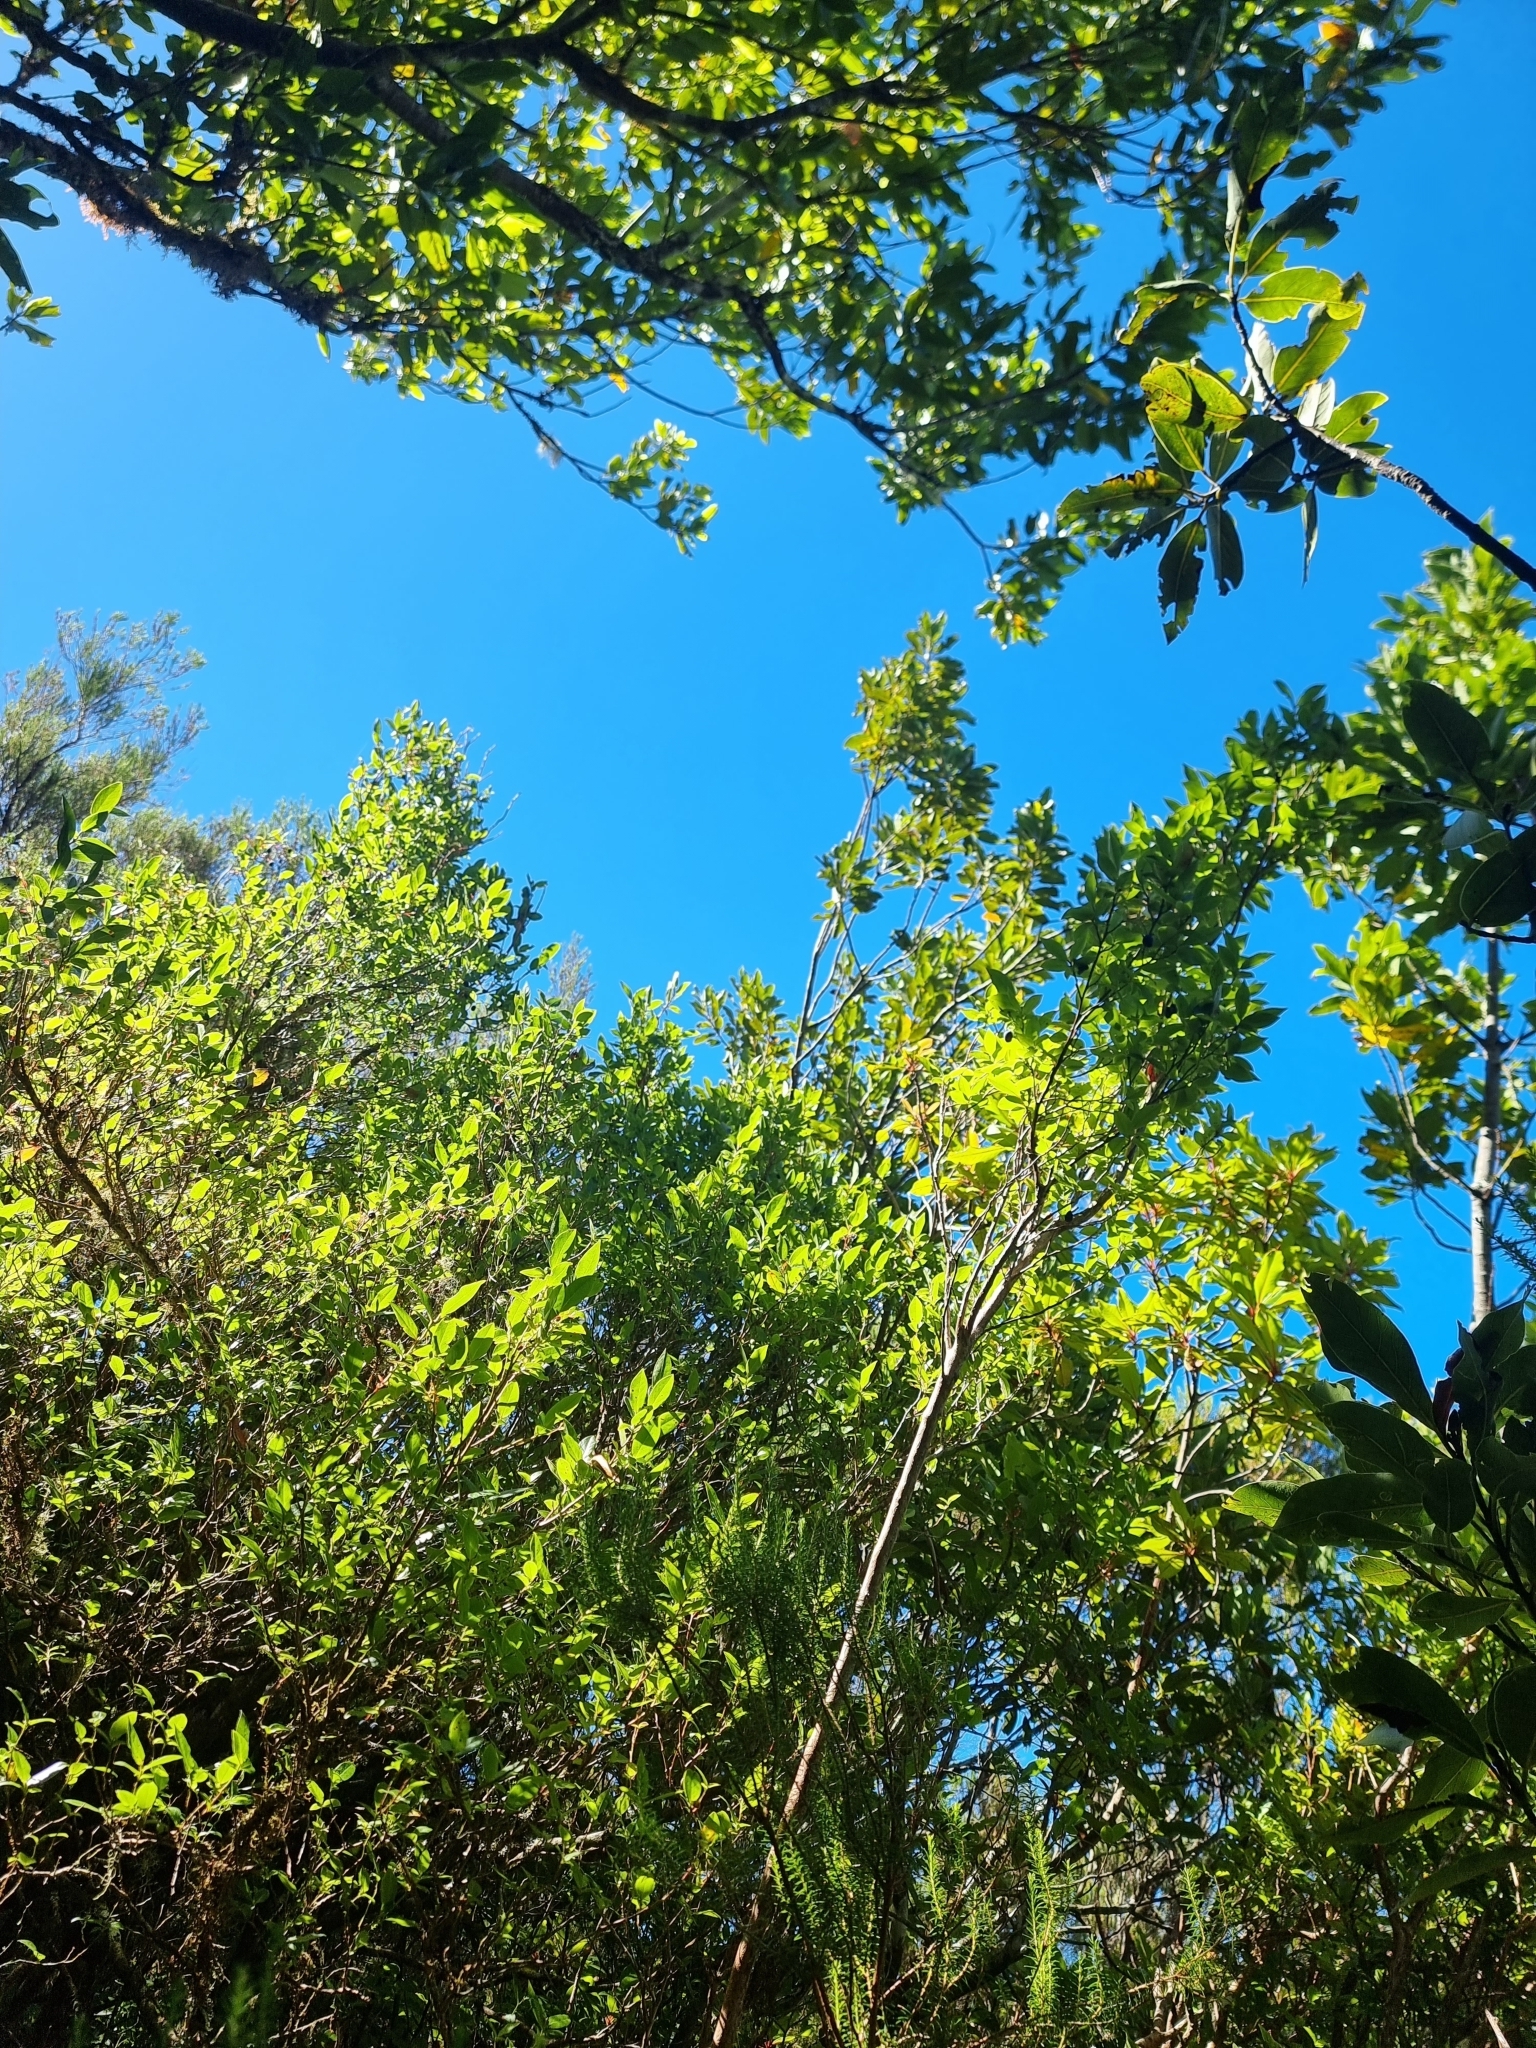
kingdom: Plantae
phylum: Tracheophyta
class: Magnoliopsida
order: Ericales
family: Ericaceae
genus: Vaccinium
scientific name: Vaccinium padifolium
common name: Madeiran blueberry
